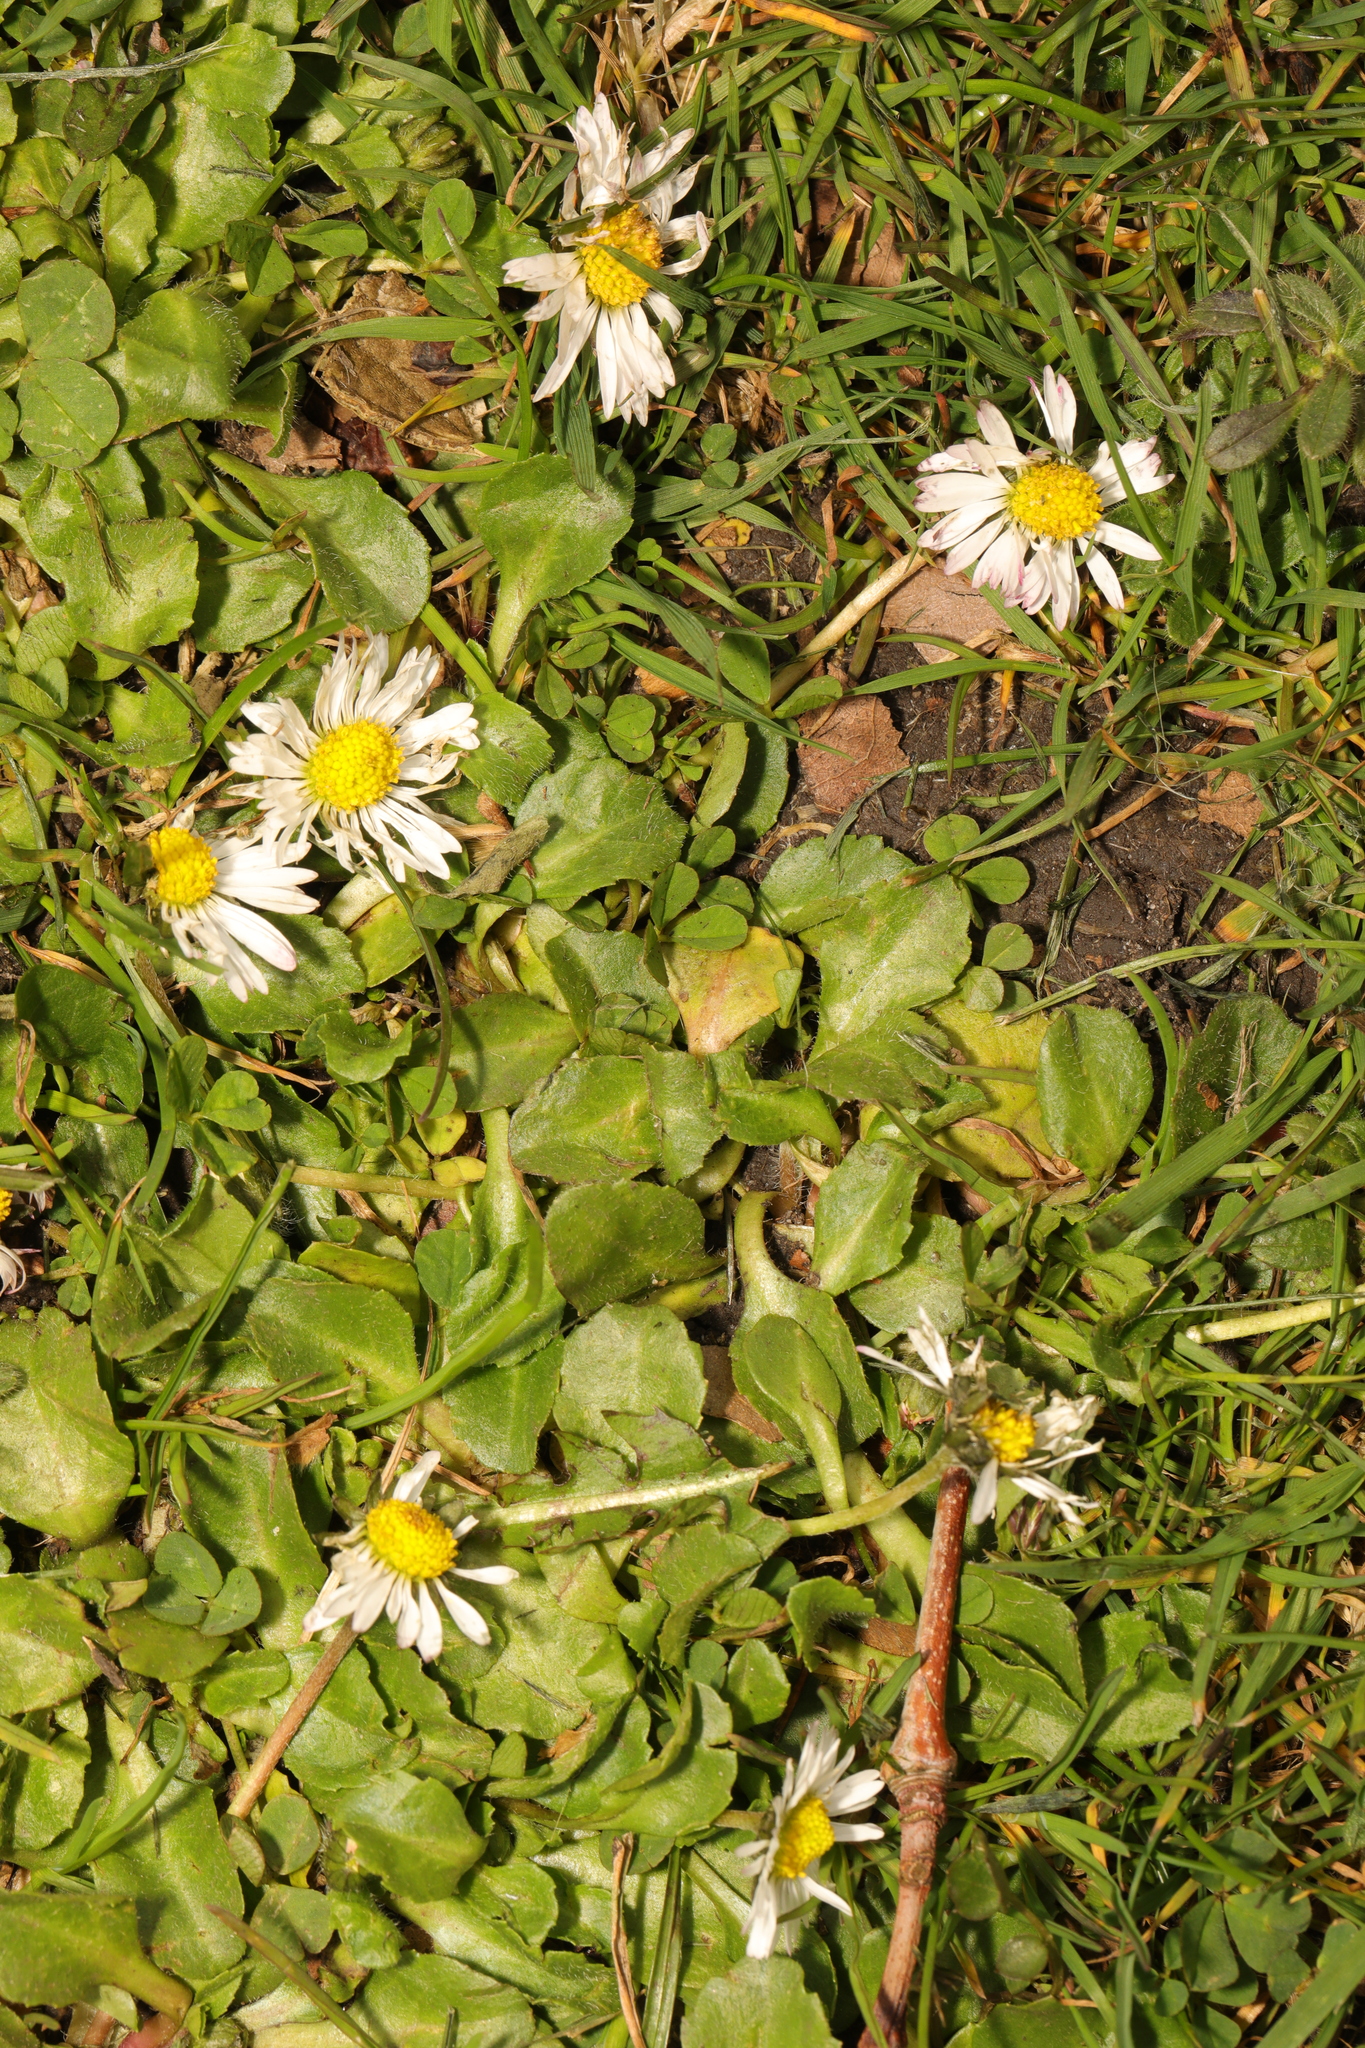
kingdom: Plantae
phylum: Tracheophyta
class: Magnoliopsida
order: Asterales
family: Asteraceae
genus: Bellis
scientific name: Bellis perennis
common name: Lawndaisy
